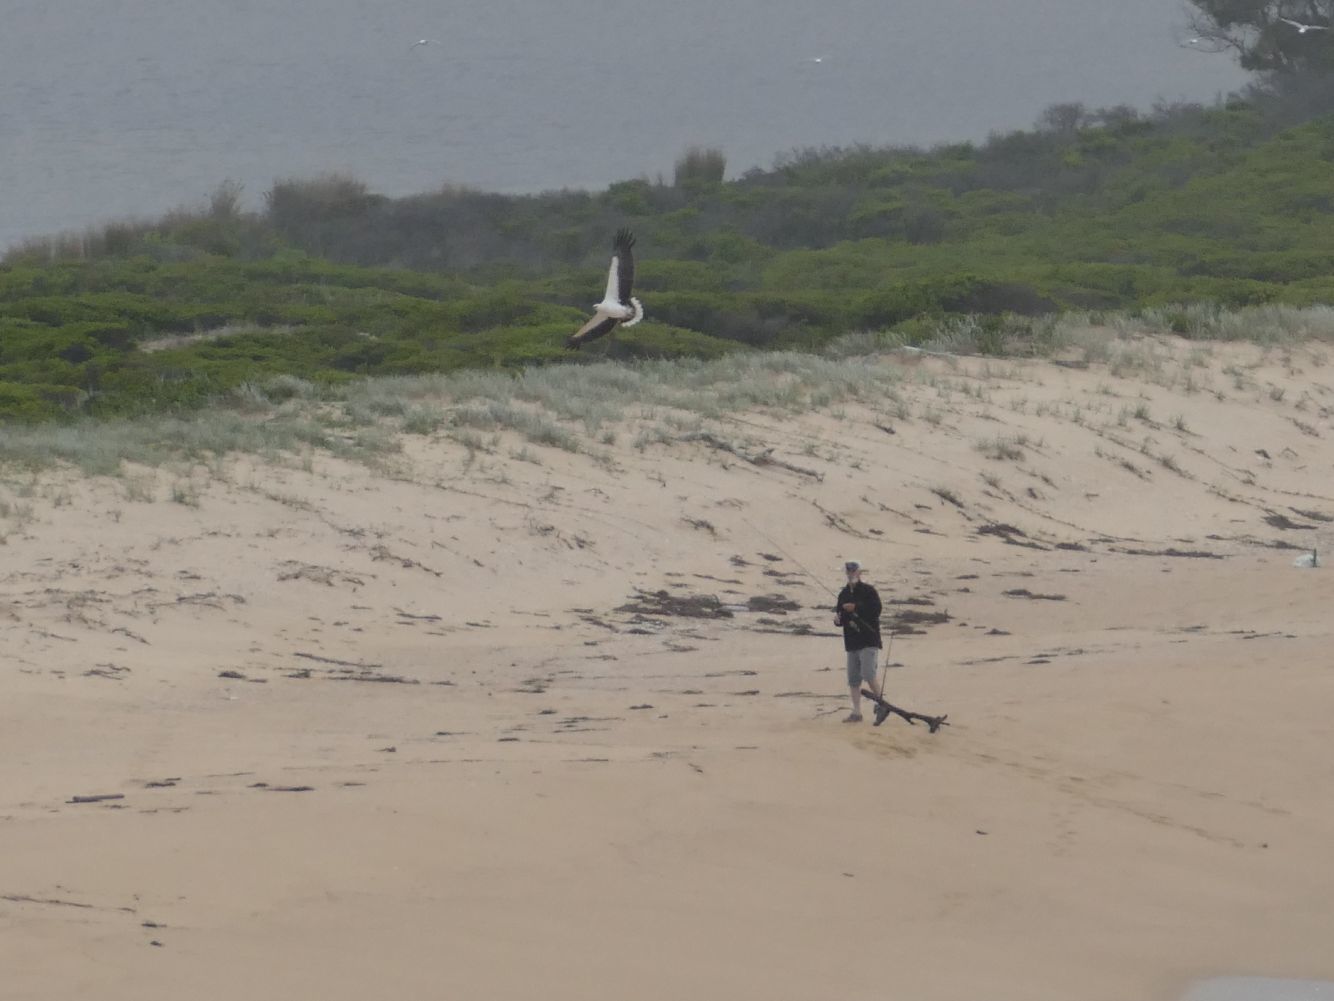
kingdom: Animalia
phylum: Chordata
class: Aves
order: Accipitriformes
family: Accipitridae
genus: Haliaeetus
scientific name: Haliaeetus leucogaster
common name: White-bellied sea eagle
